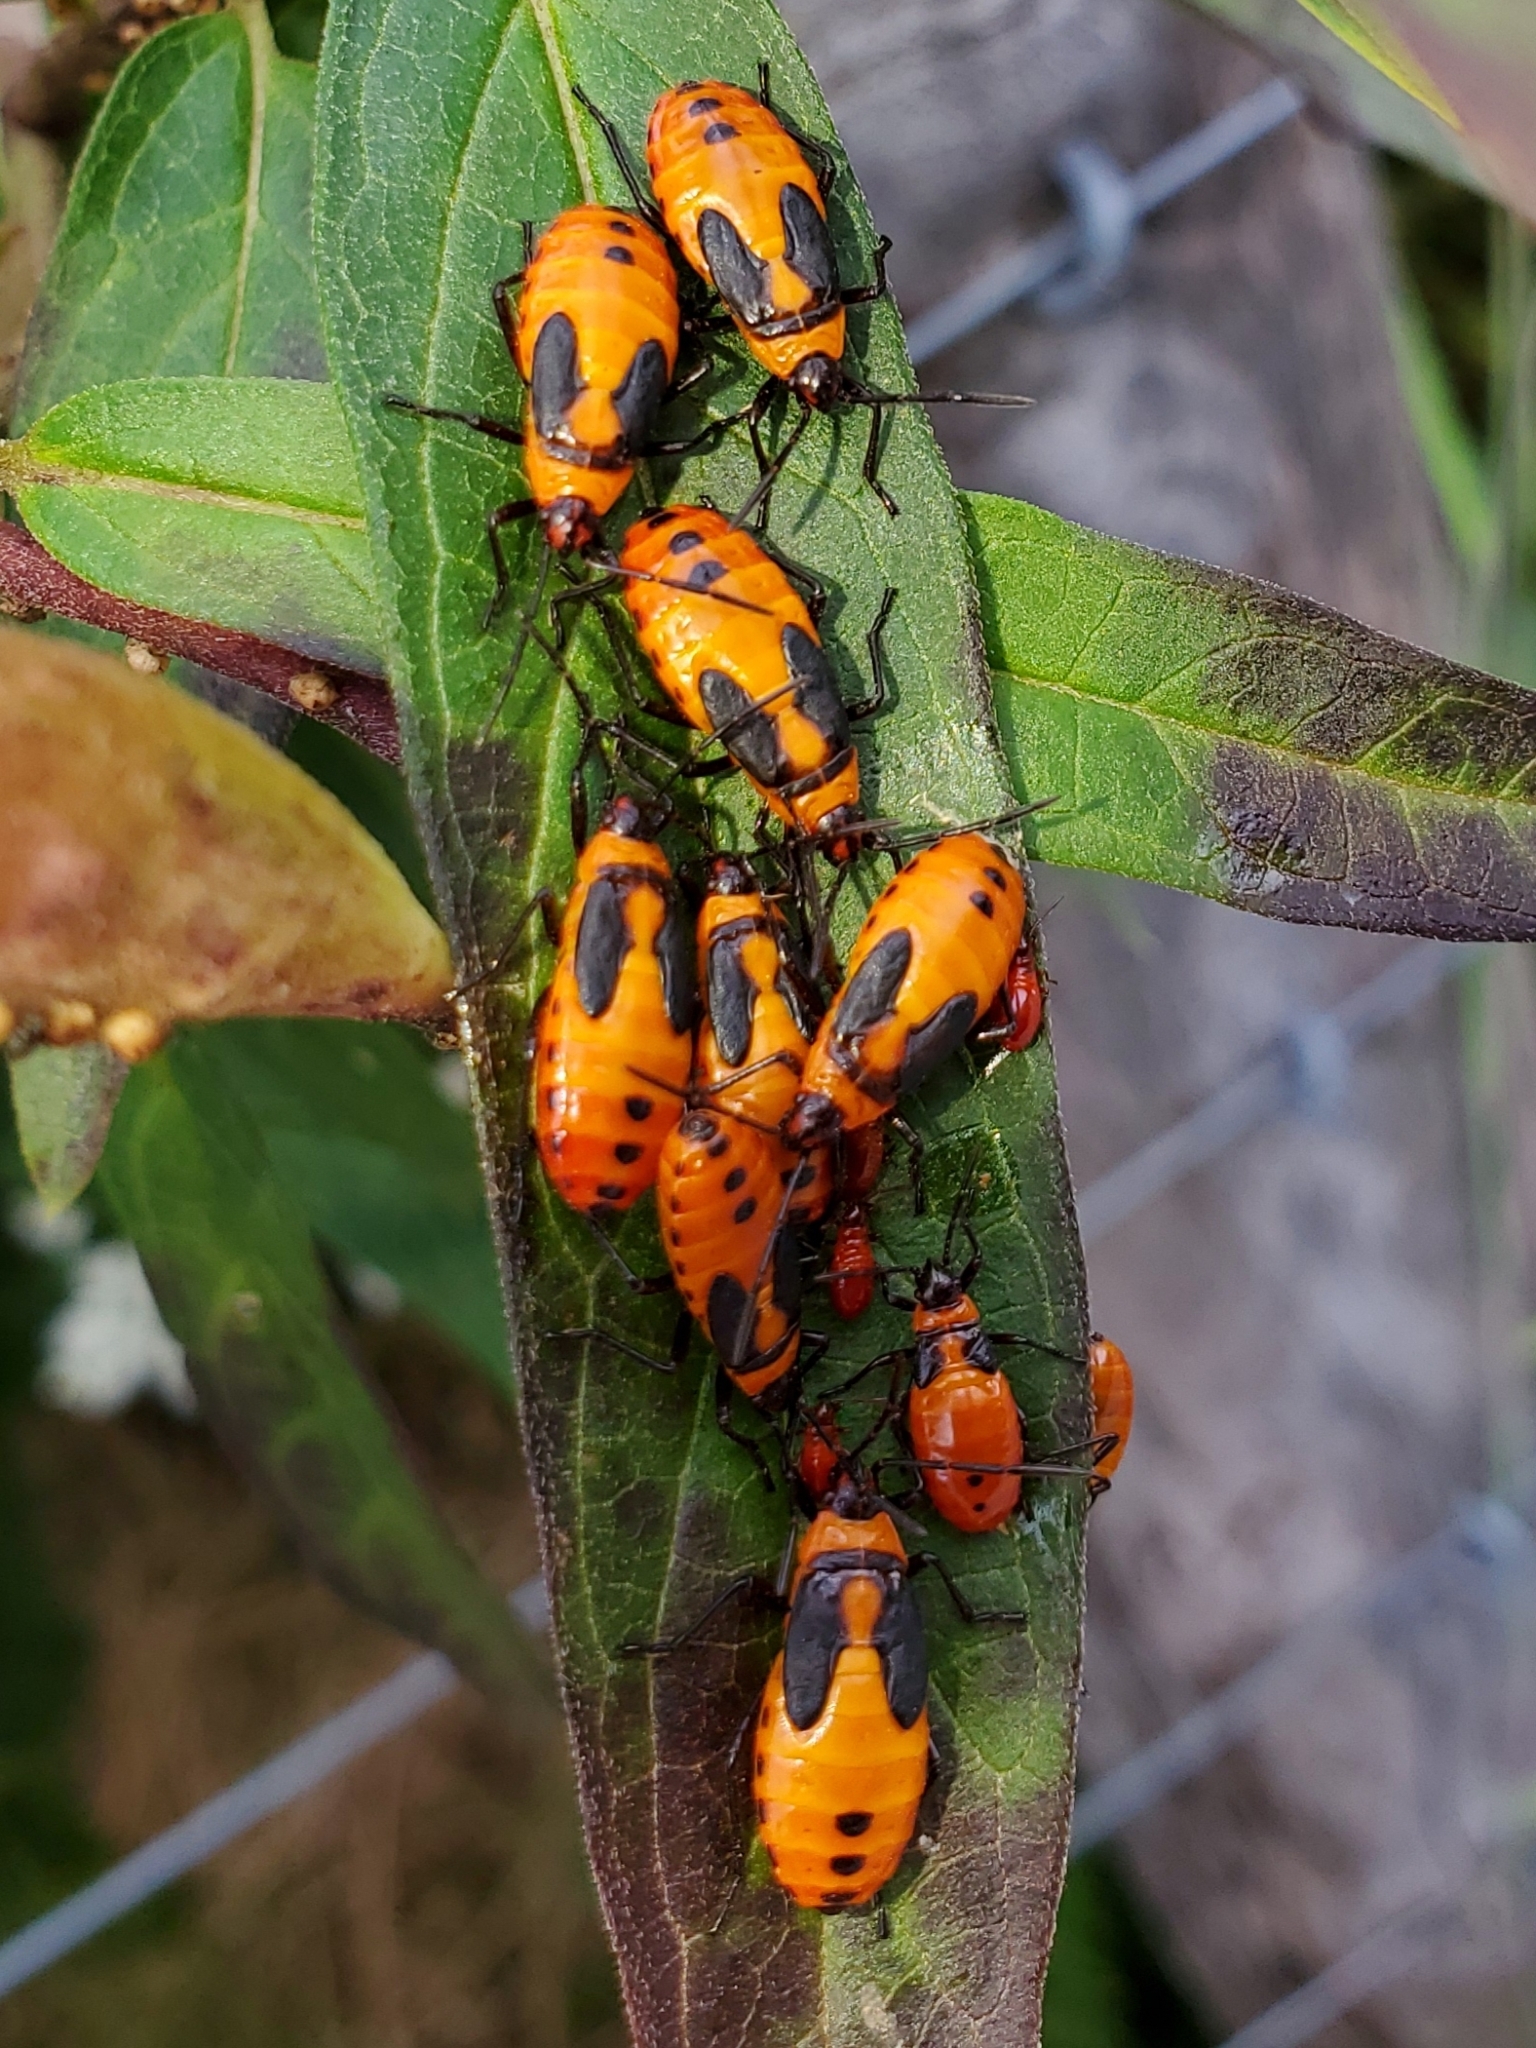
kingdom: Animalia
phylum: Arthropoda
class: Insecta
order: Hemiptera
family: Lygaeidae
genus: Oncopeltus
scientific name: Oncopeltus fasciatus
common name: Large milkweed bug
